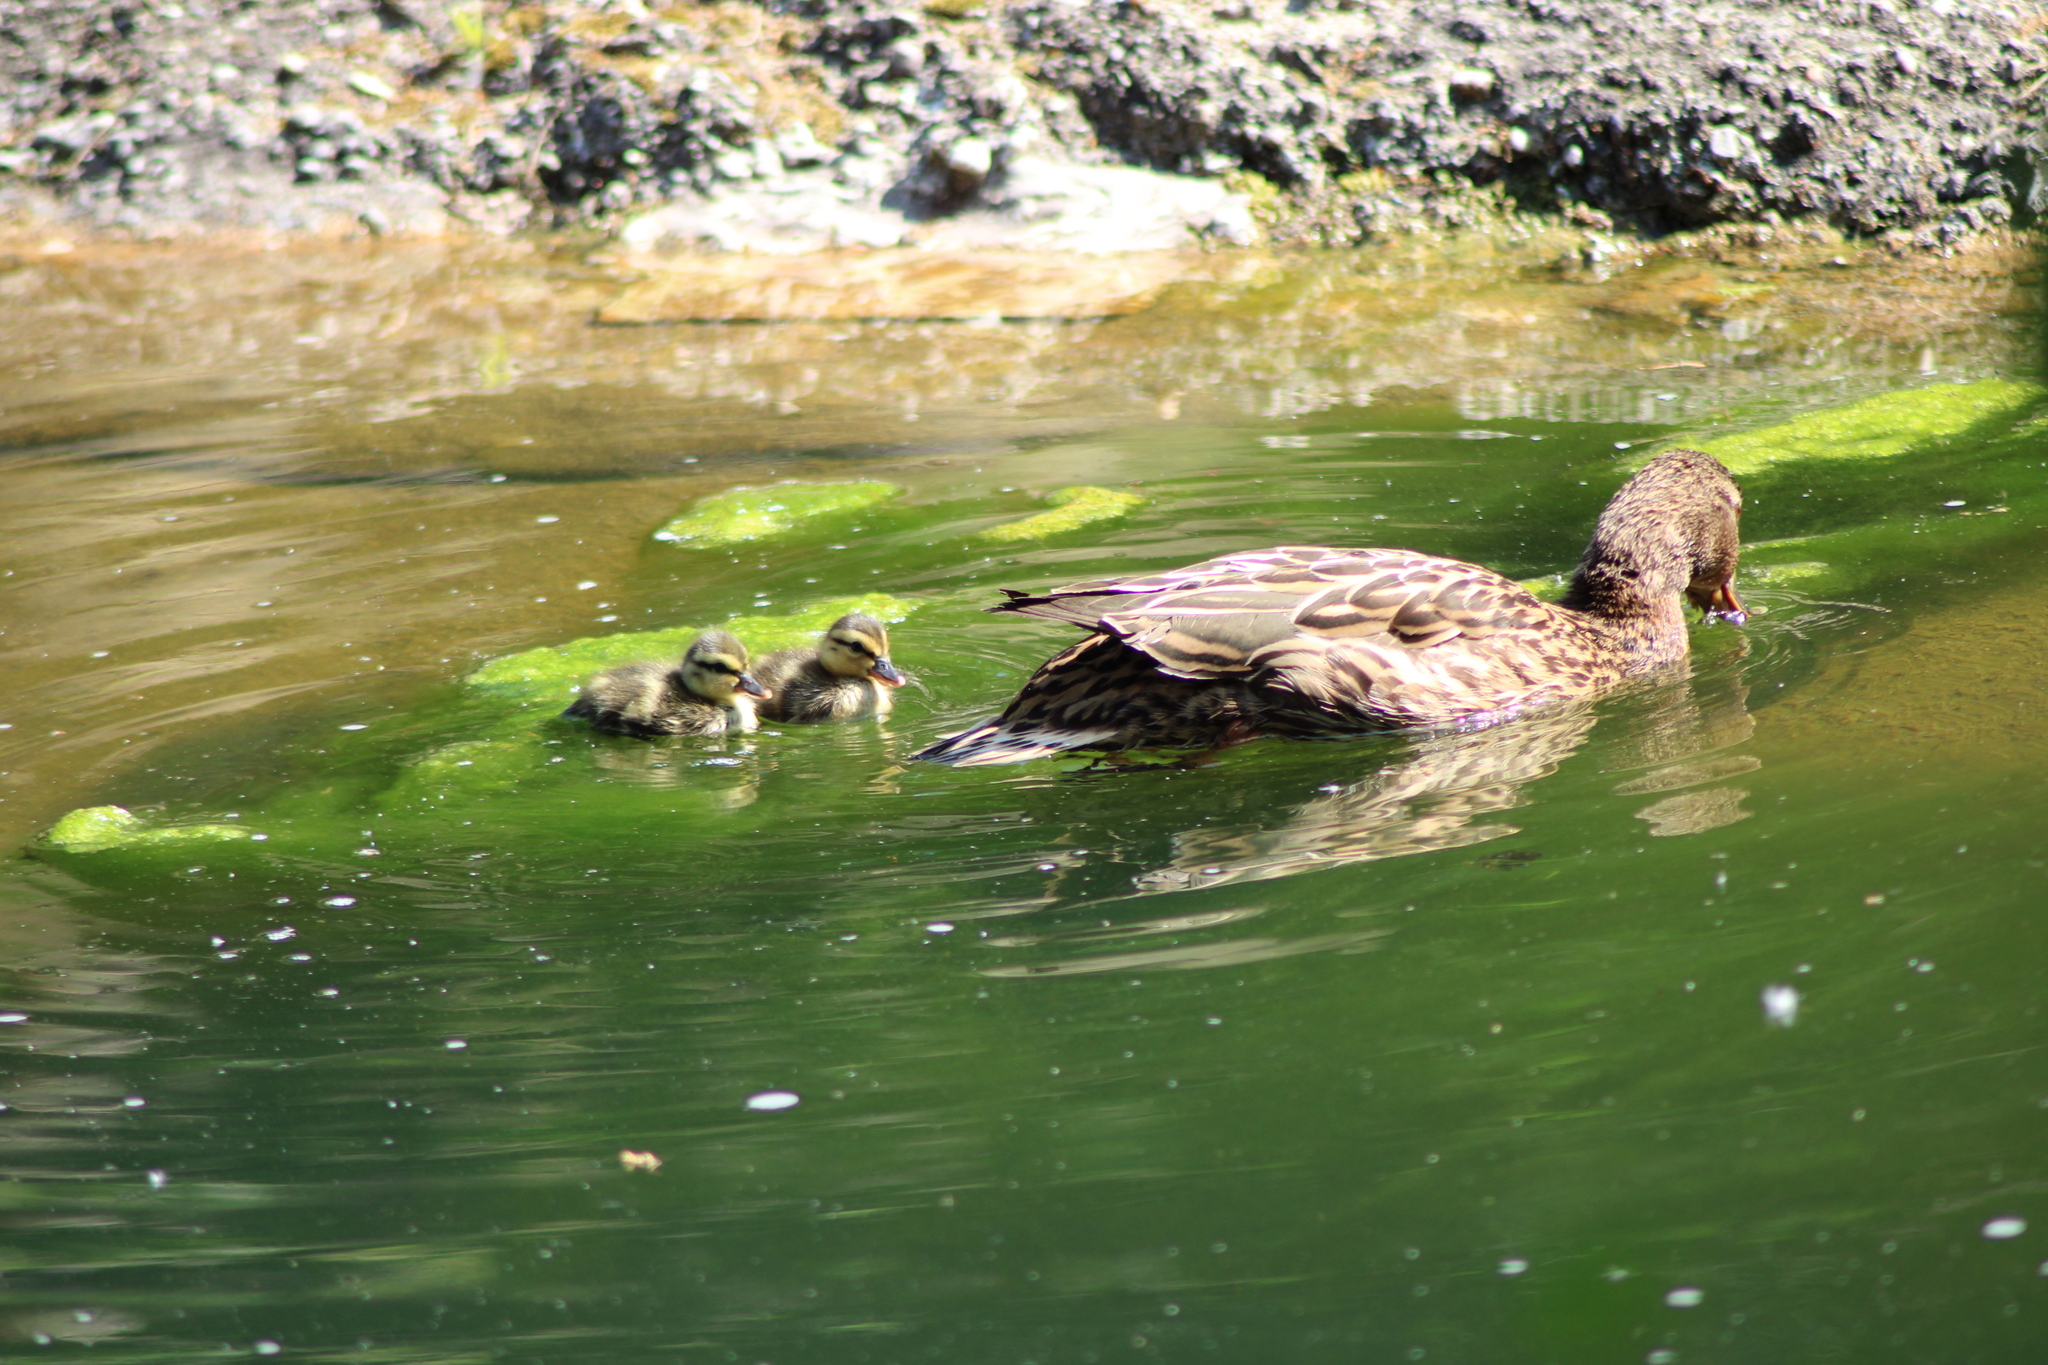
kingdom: Animalia
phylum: Chordata
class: Aves
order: Anseriformes
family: Anatidae
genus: Anas
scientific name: Anas platyrhynchos
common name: Mallard
